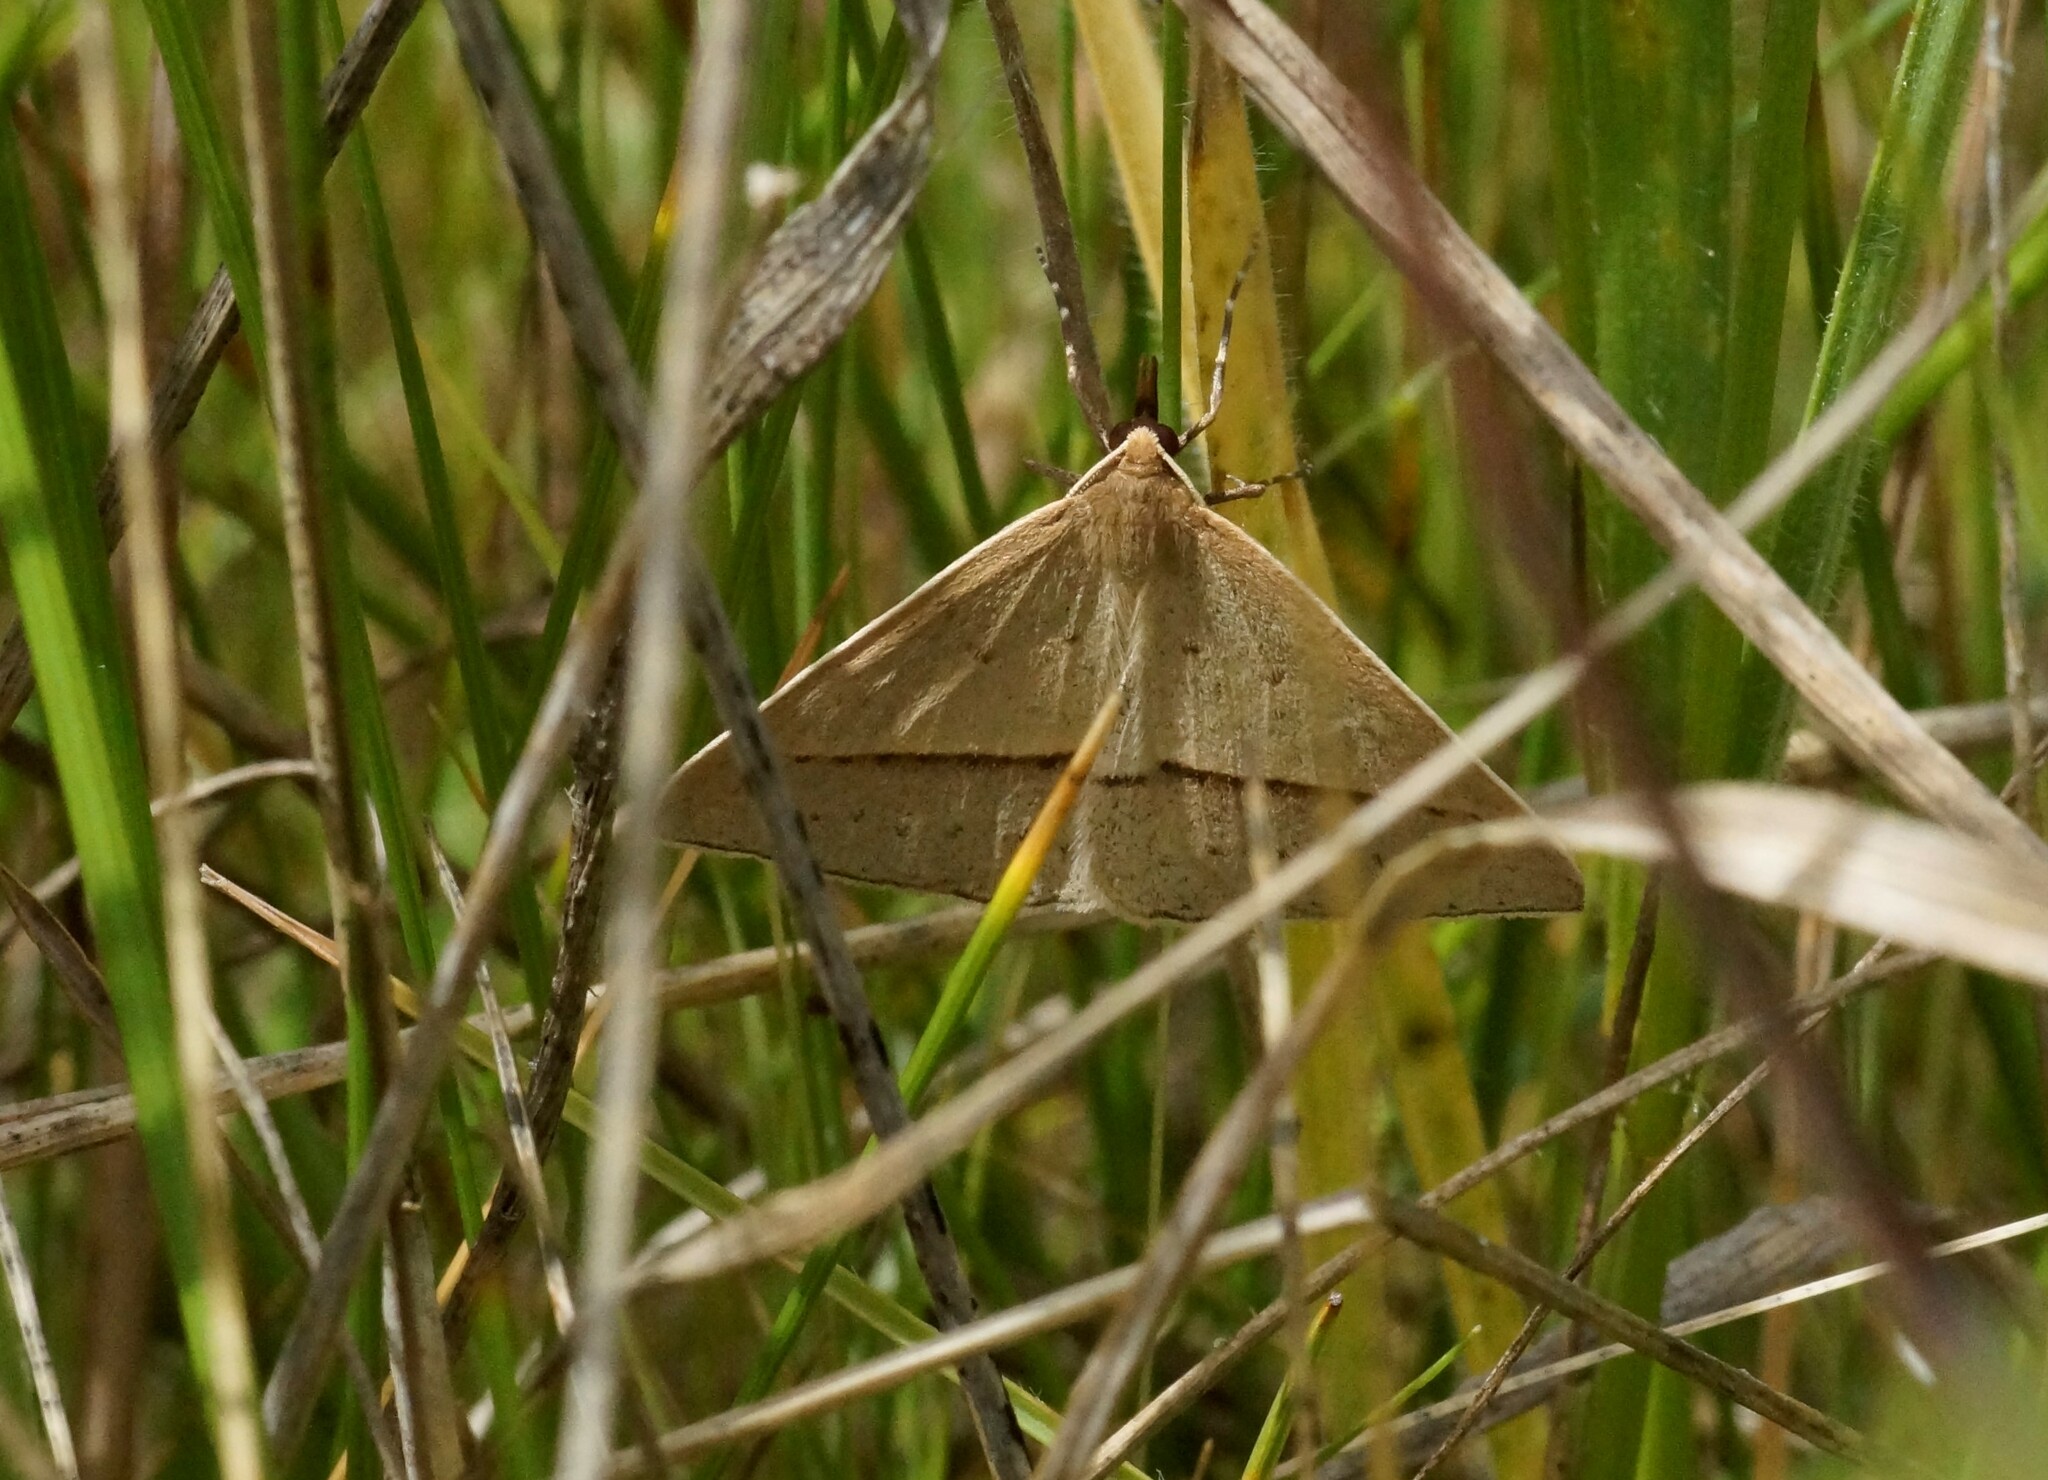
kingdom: Animalia
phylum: Arthropoda
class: Insecta
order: Lepidoptera
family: Geometridae
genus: Epidesmia
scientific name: Epidesmia tryxaria
